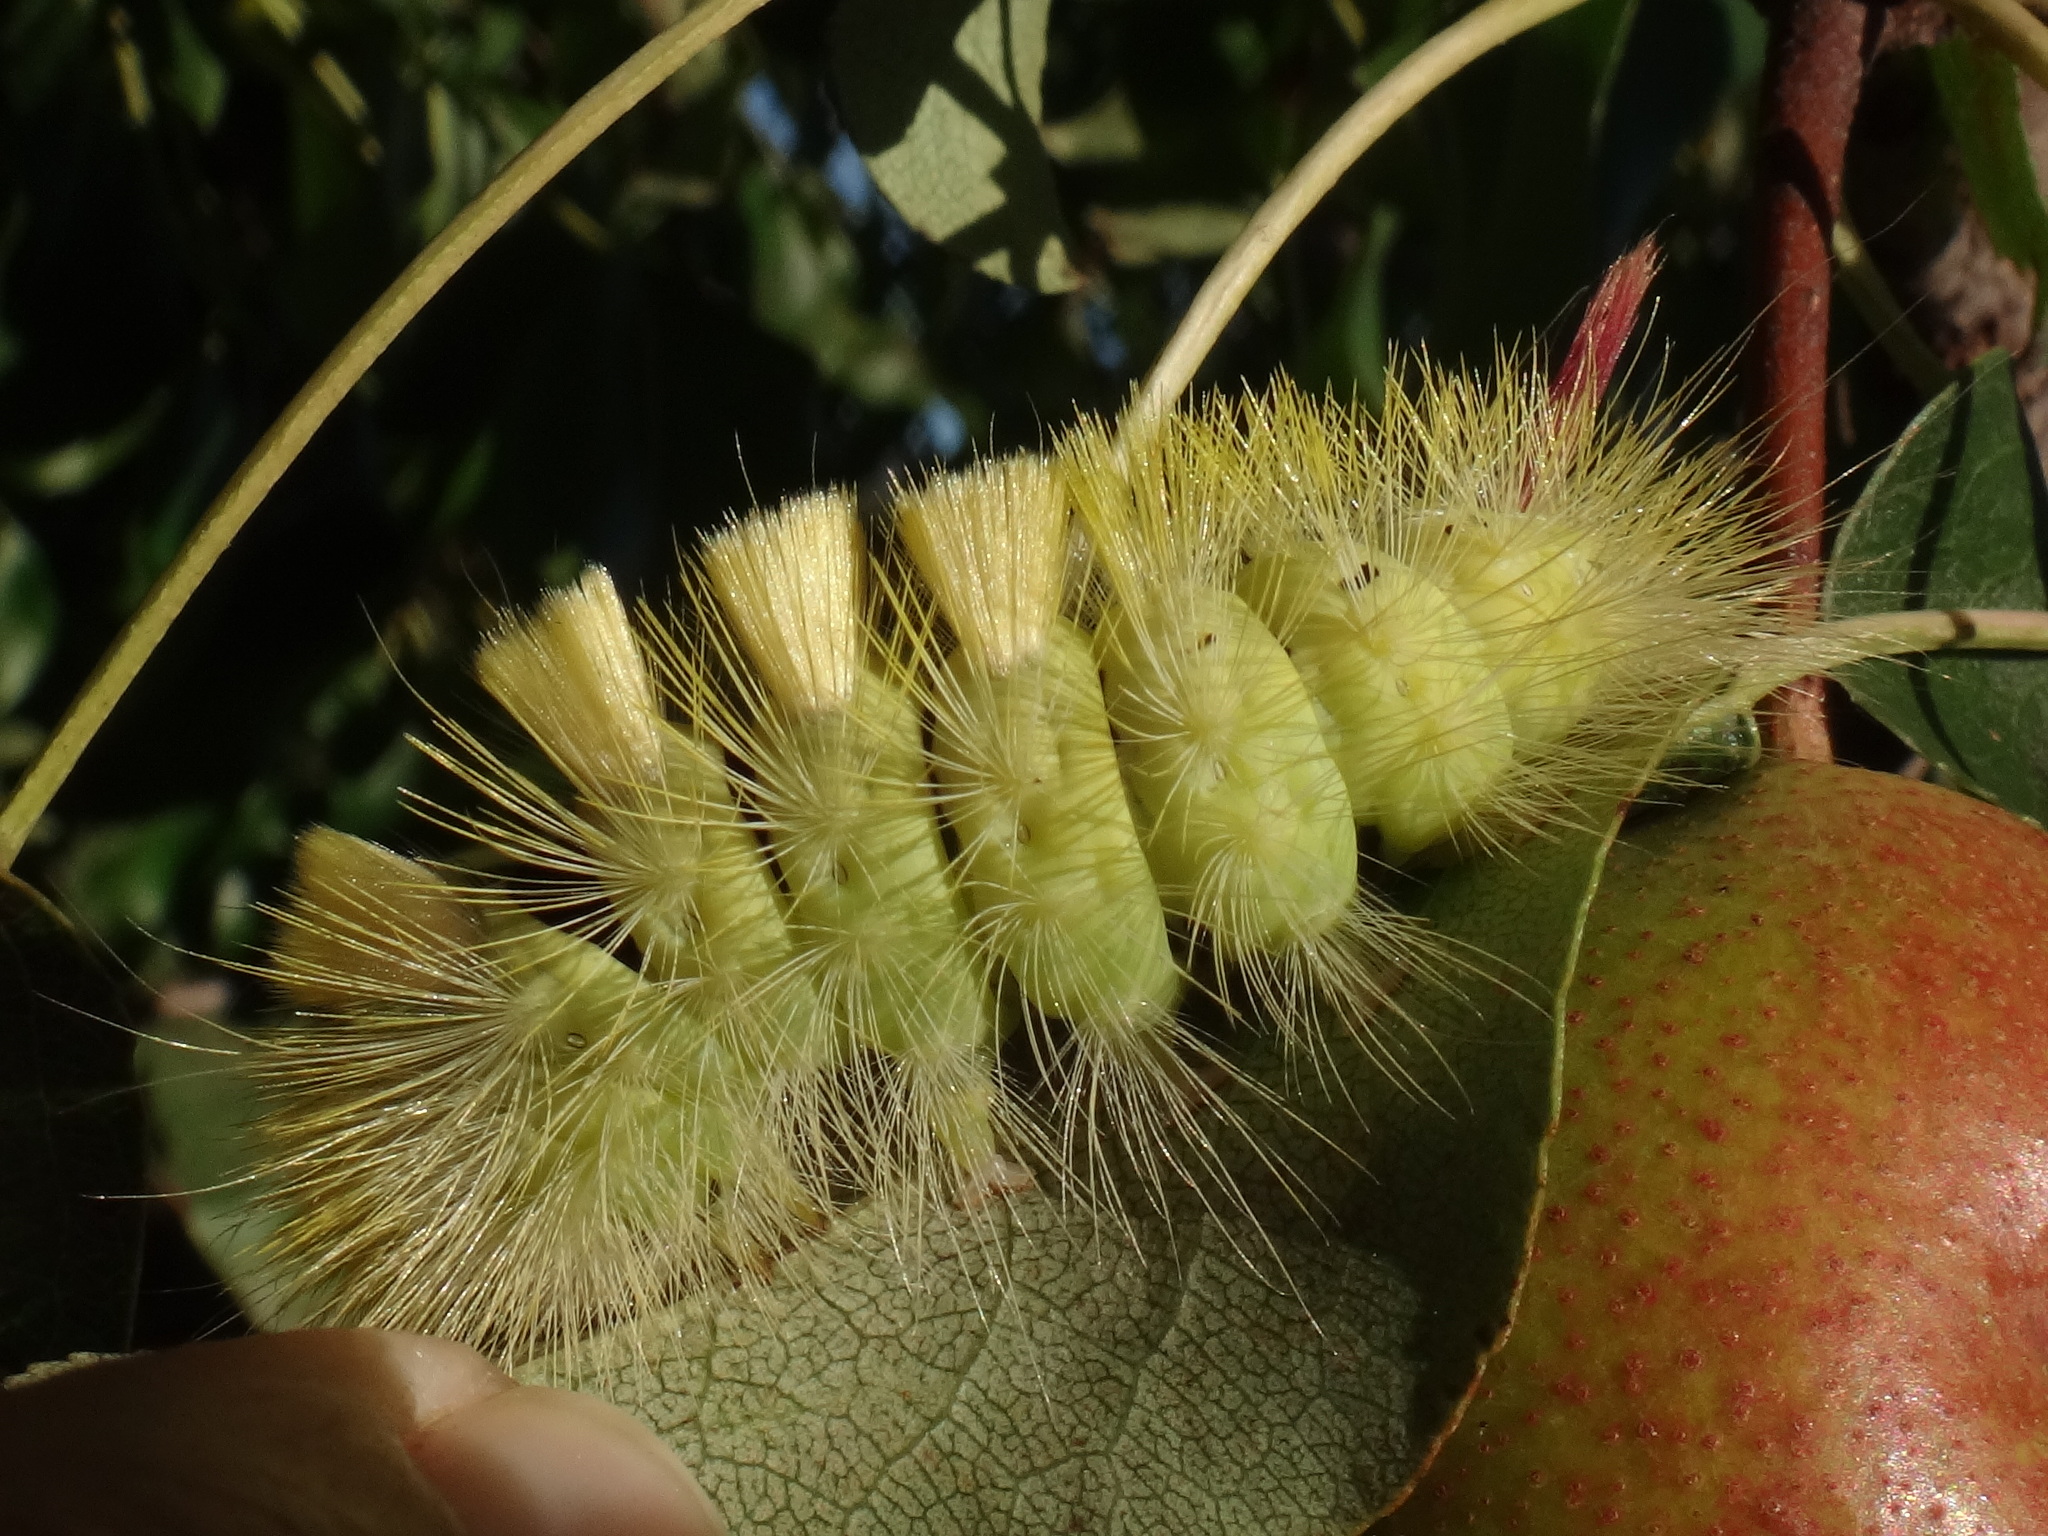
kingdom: Animalia
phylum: Arthropoda
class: Insecta
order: Lepidoptera
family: Erebidae
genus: Calliteara
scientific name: Calliteara pudibunda
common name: Pale tussock
